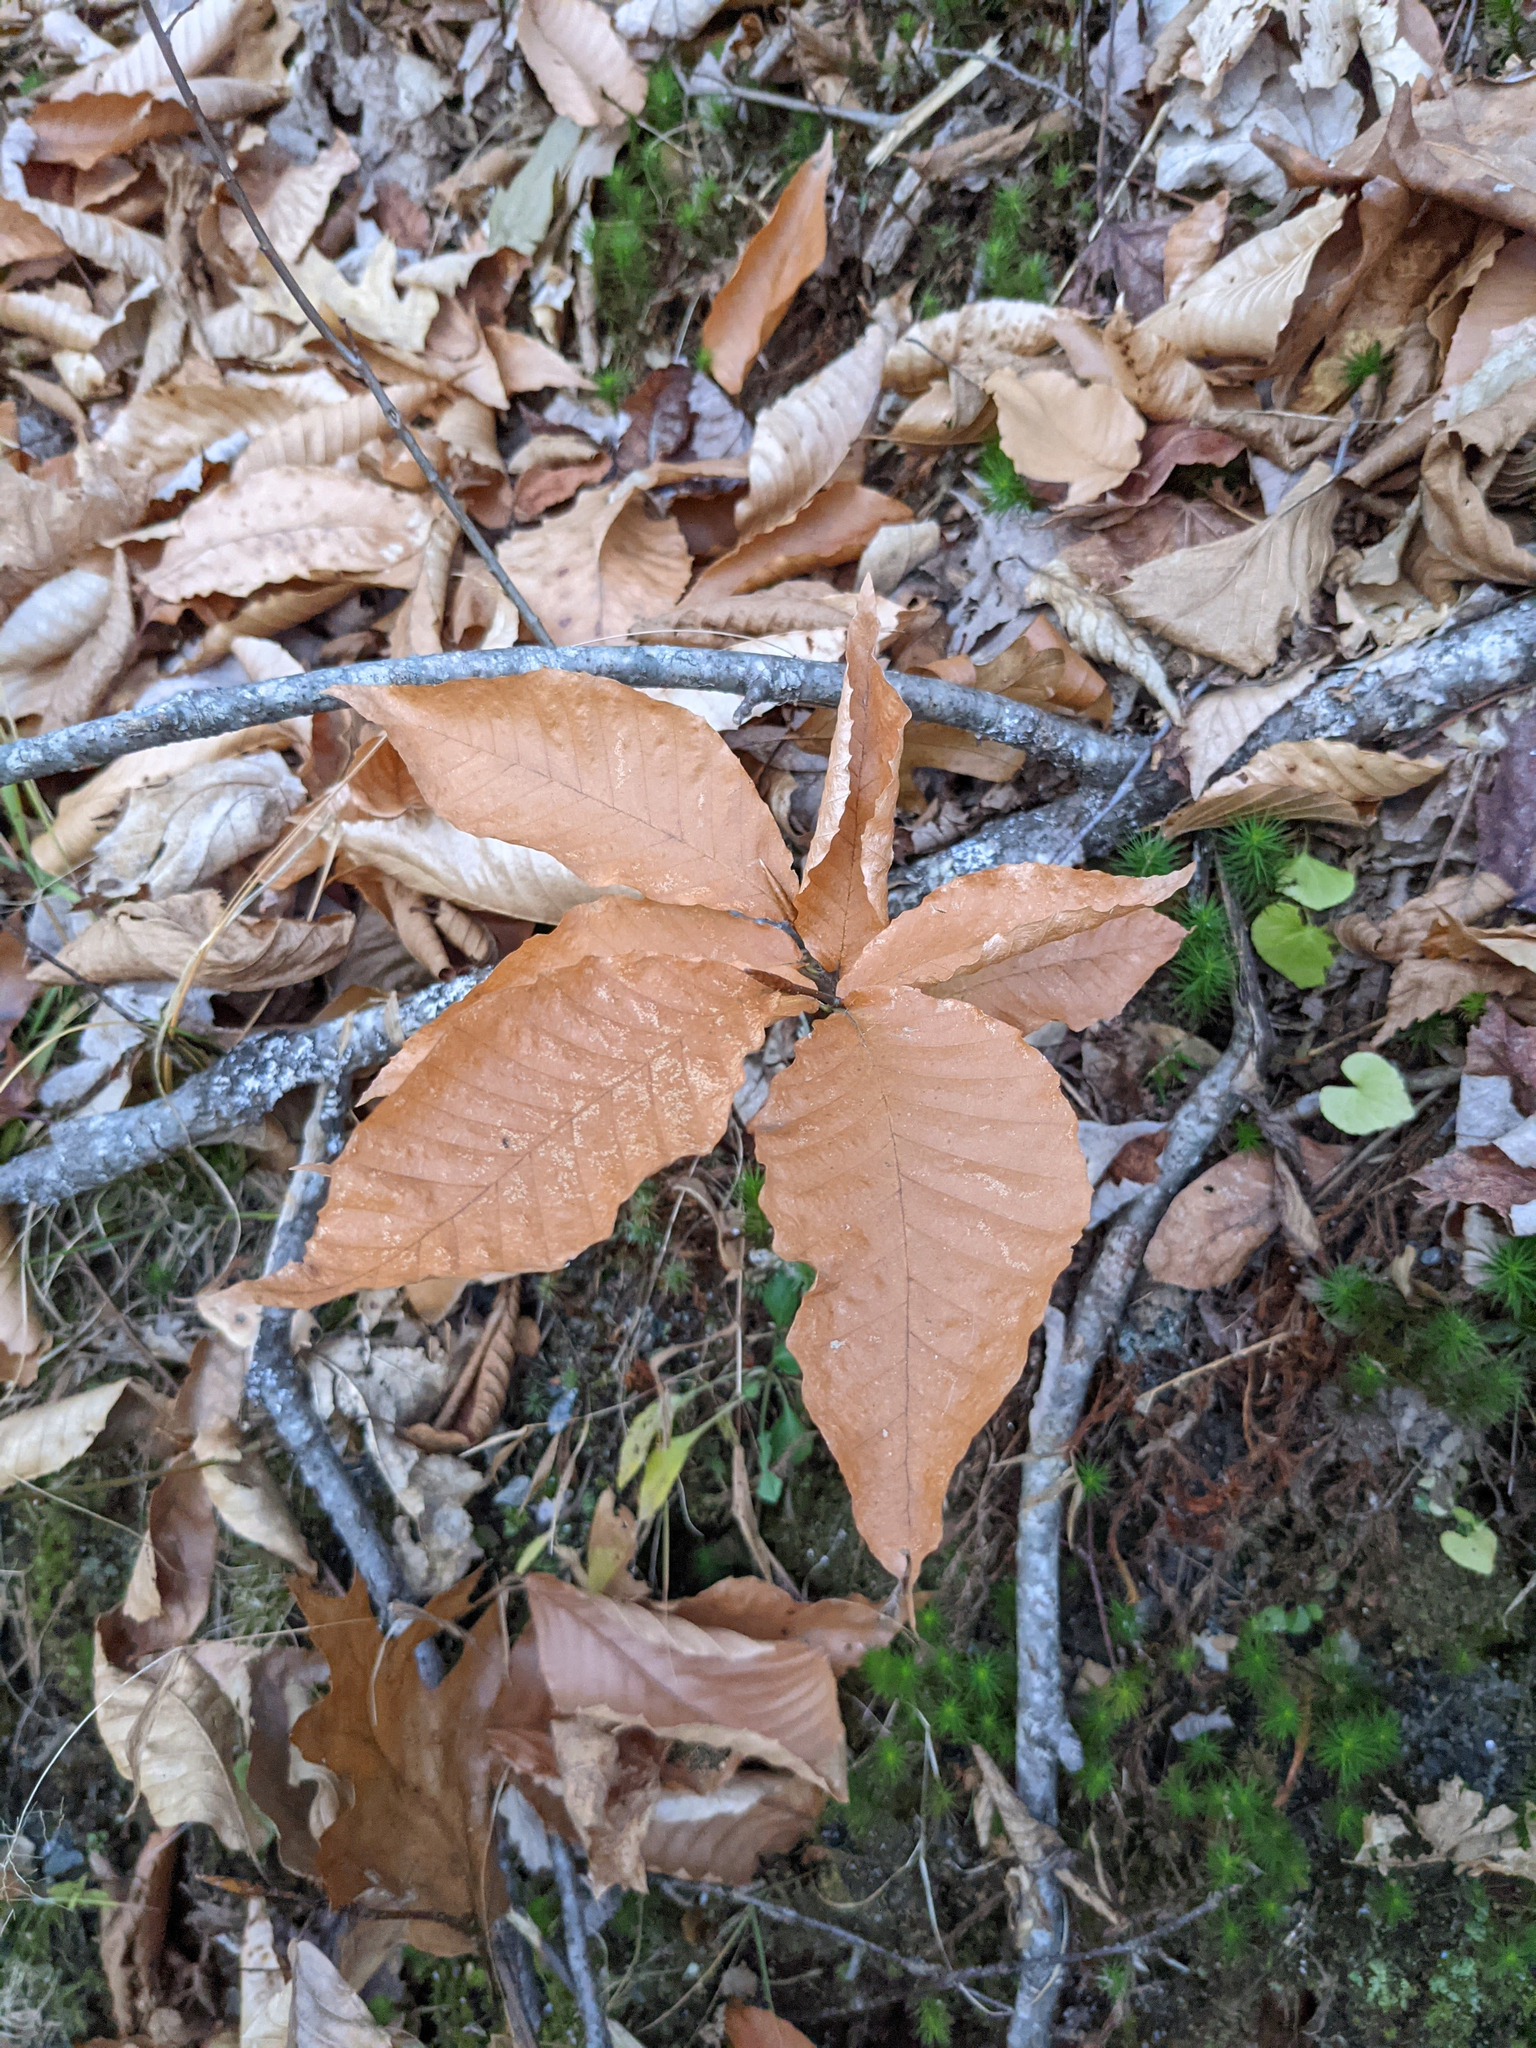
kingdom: Plantae
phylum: Tracheophyta
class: Magnoliopsida
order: Fagales
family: Fagaceae
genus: Fagus
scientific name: Fagus grandifolia
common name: American beech
